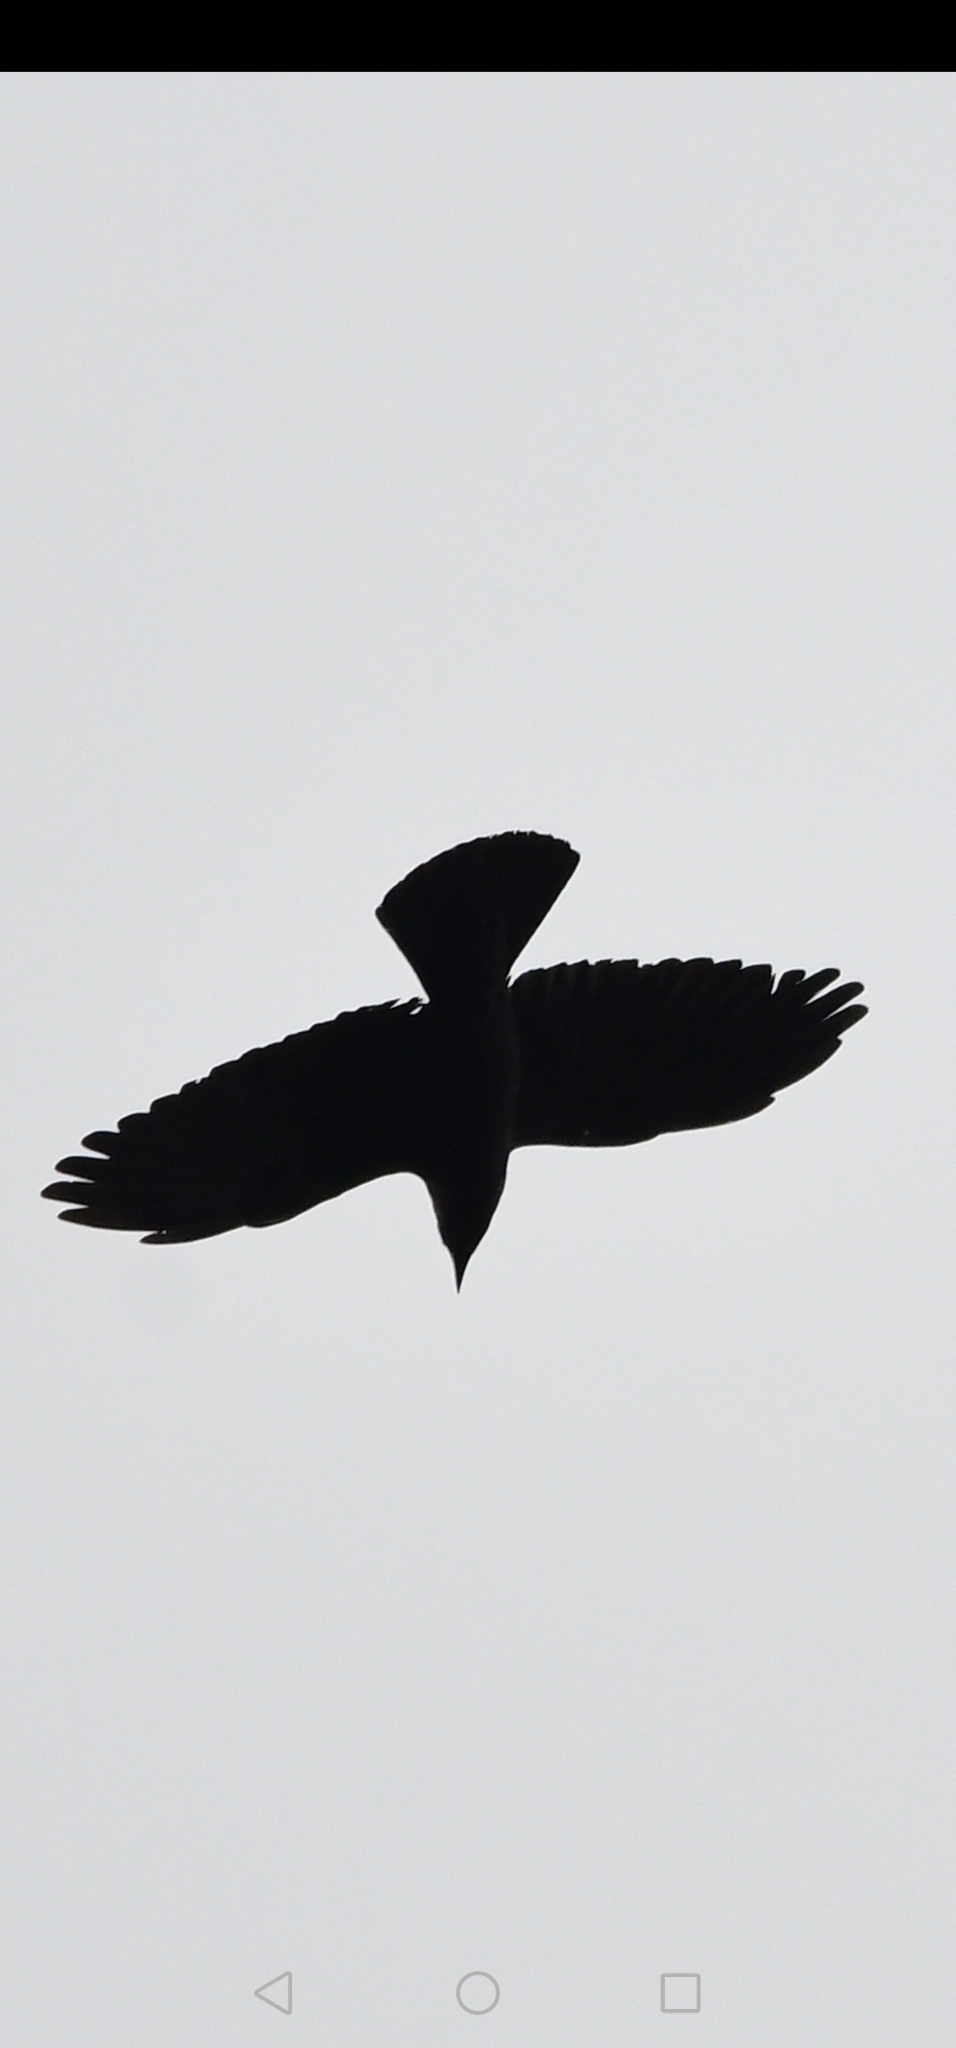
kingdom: Animalia
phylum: Chordata
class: Aves
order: Passeriformes
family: Corvidae
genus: Coloeus
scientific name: Coloeus monedula
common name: Western jackdaw
